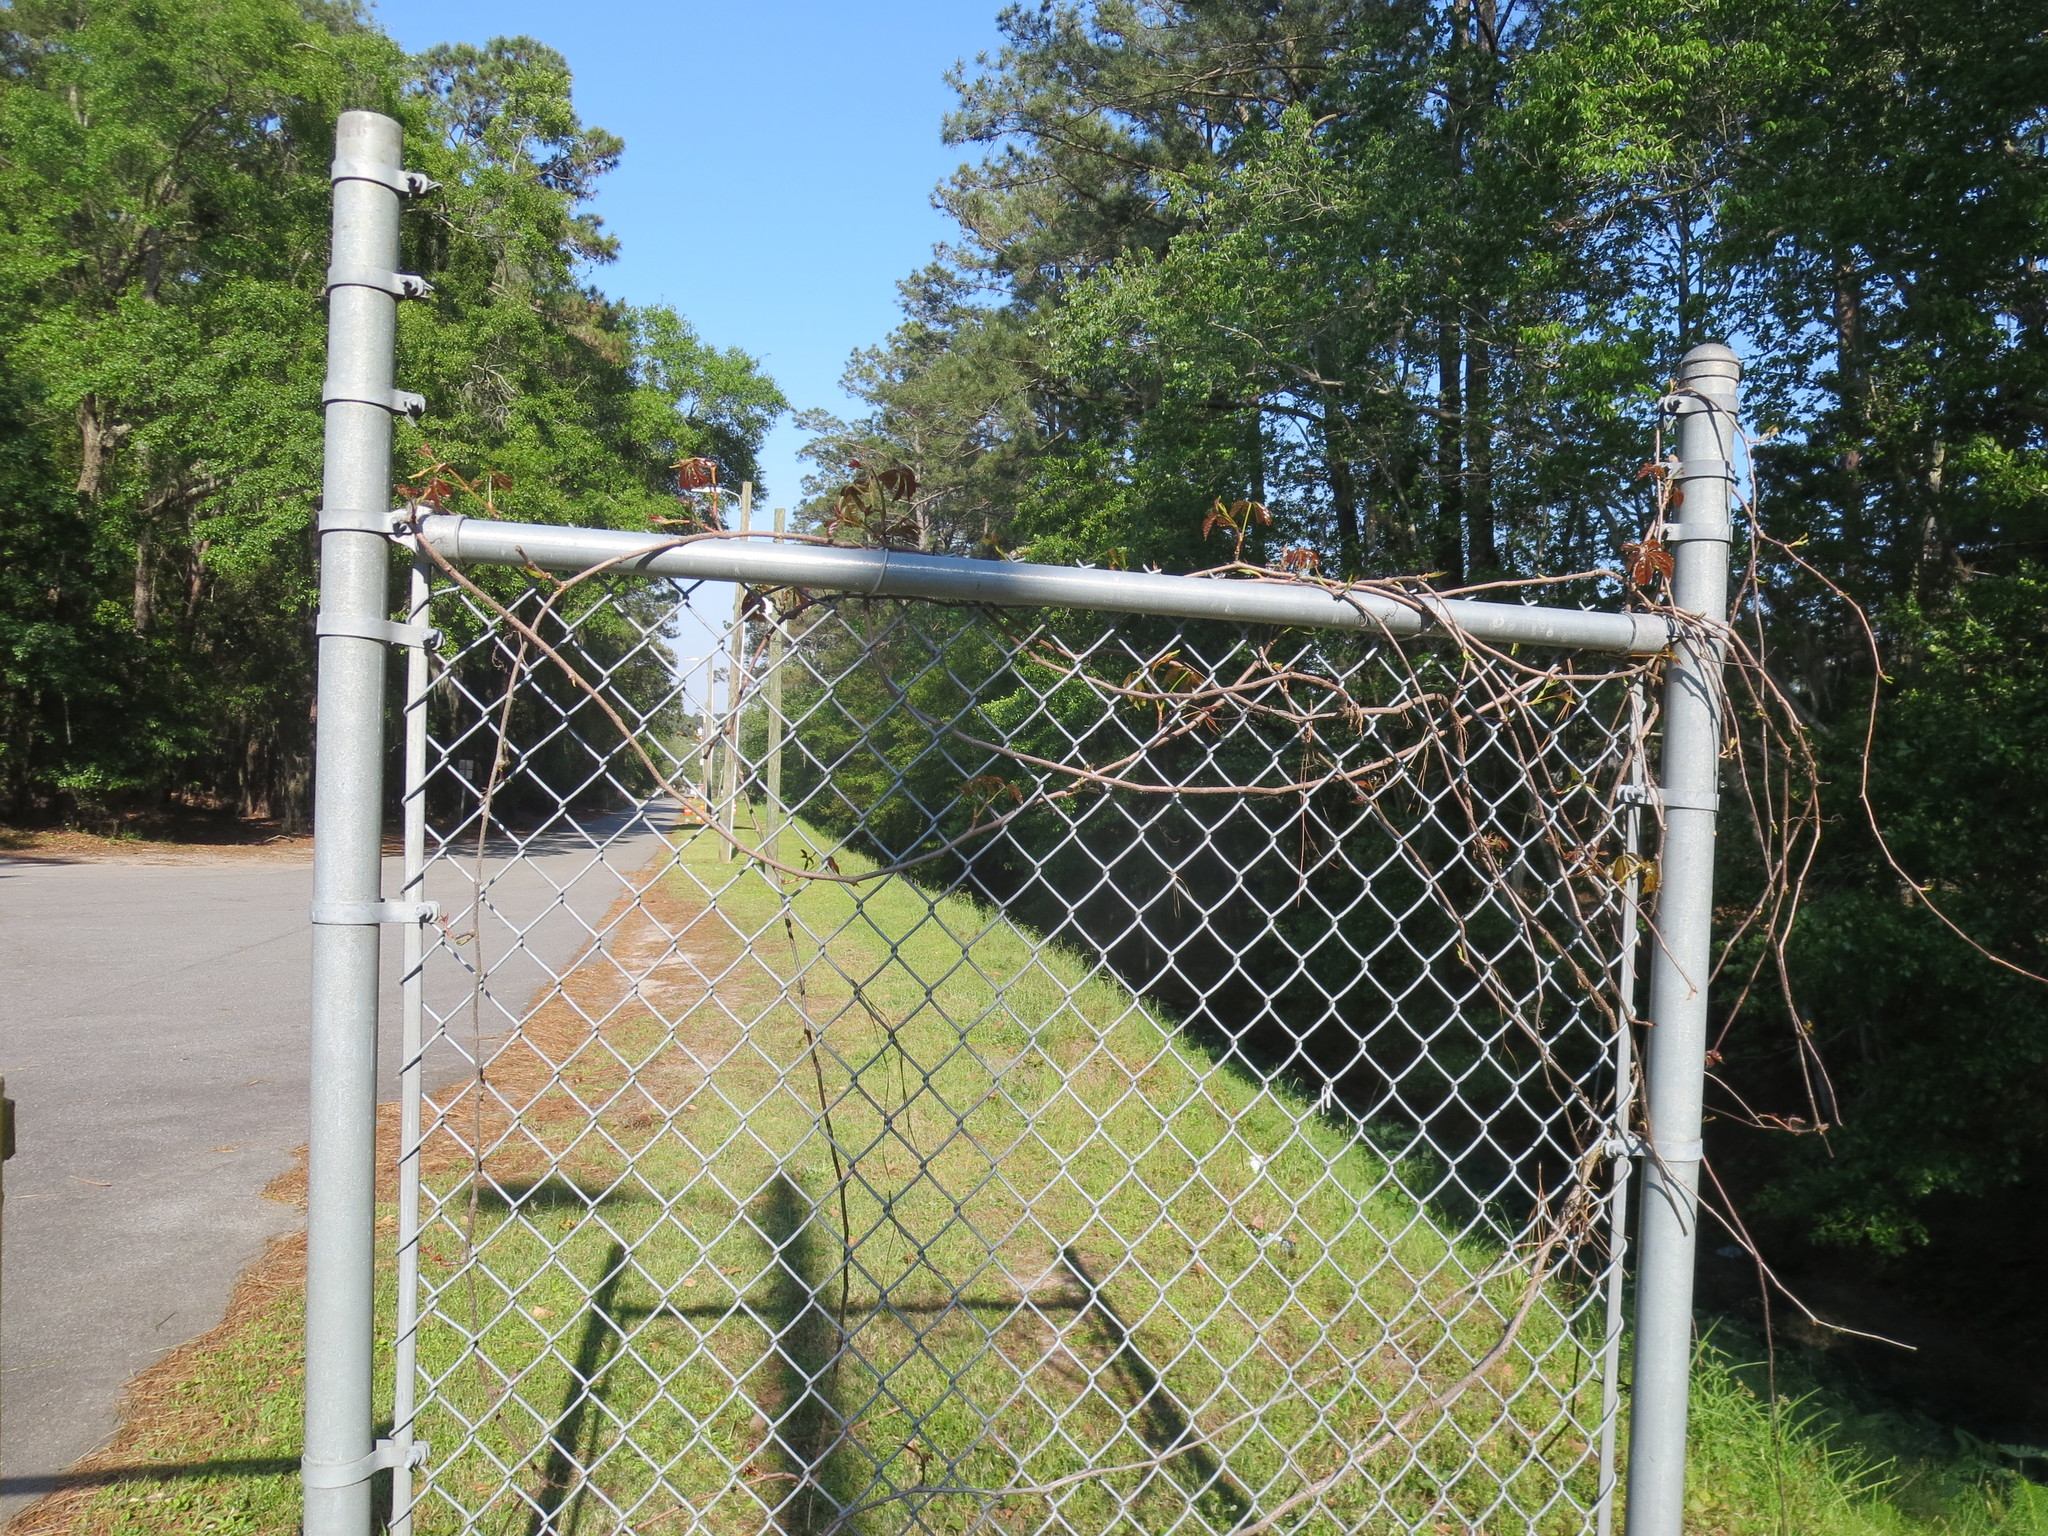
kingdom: Plantae
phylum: Tracheophyta
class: Magnoliopsida
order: Vitales
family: Vitaceae
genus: Parthenocissus
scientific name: Parthenocissus quinquefolia
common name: Virginia-creeper
